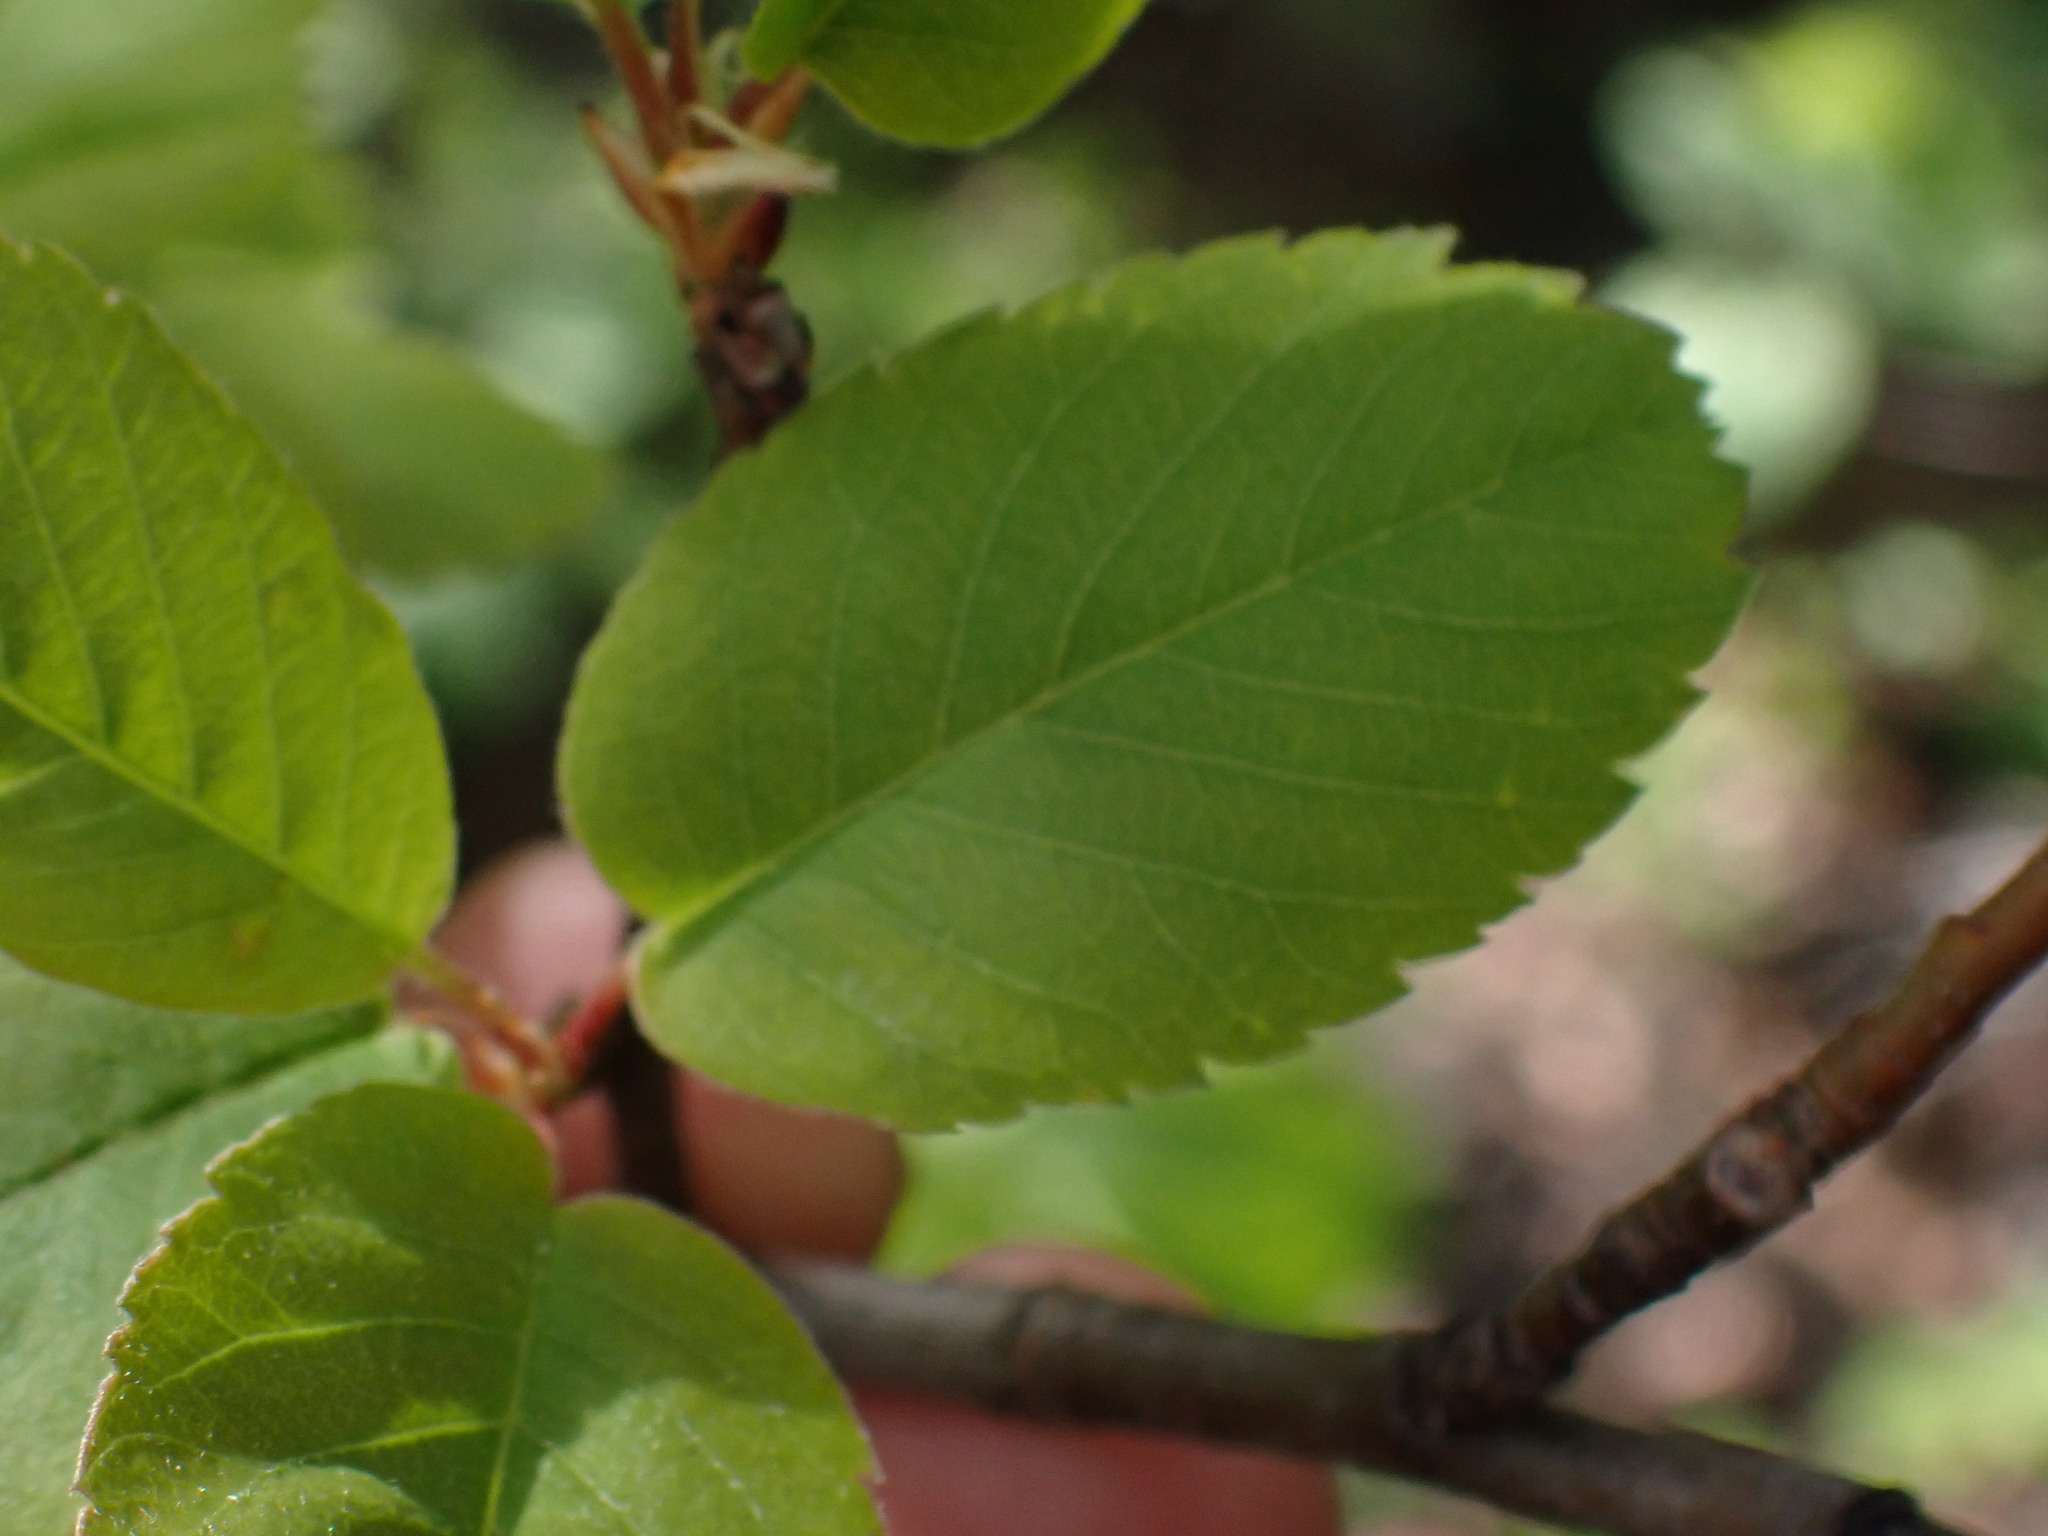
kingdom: Plantae
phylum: Tracheophyta
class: Magnoliopsida
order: Rosales
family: Rosaceae
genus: Amelanchier
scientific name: Amelanchier alnifolia
